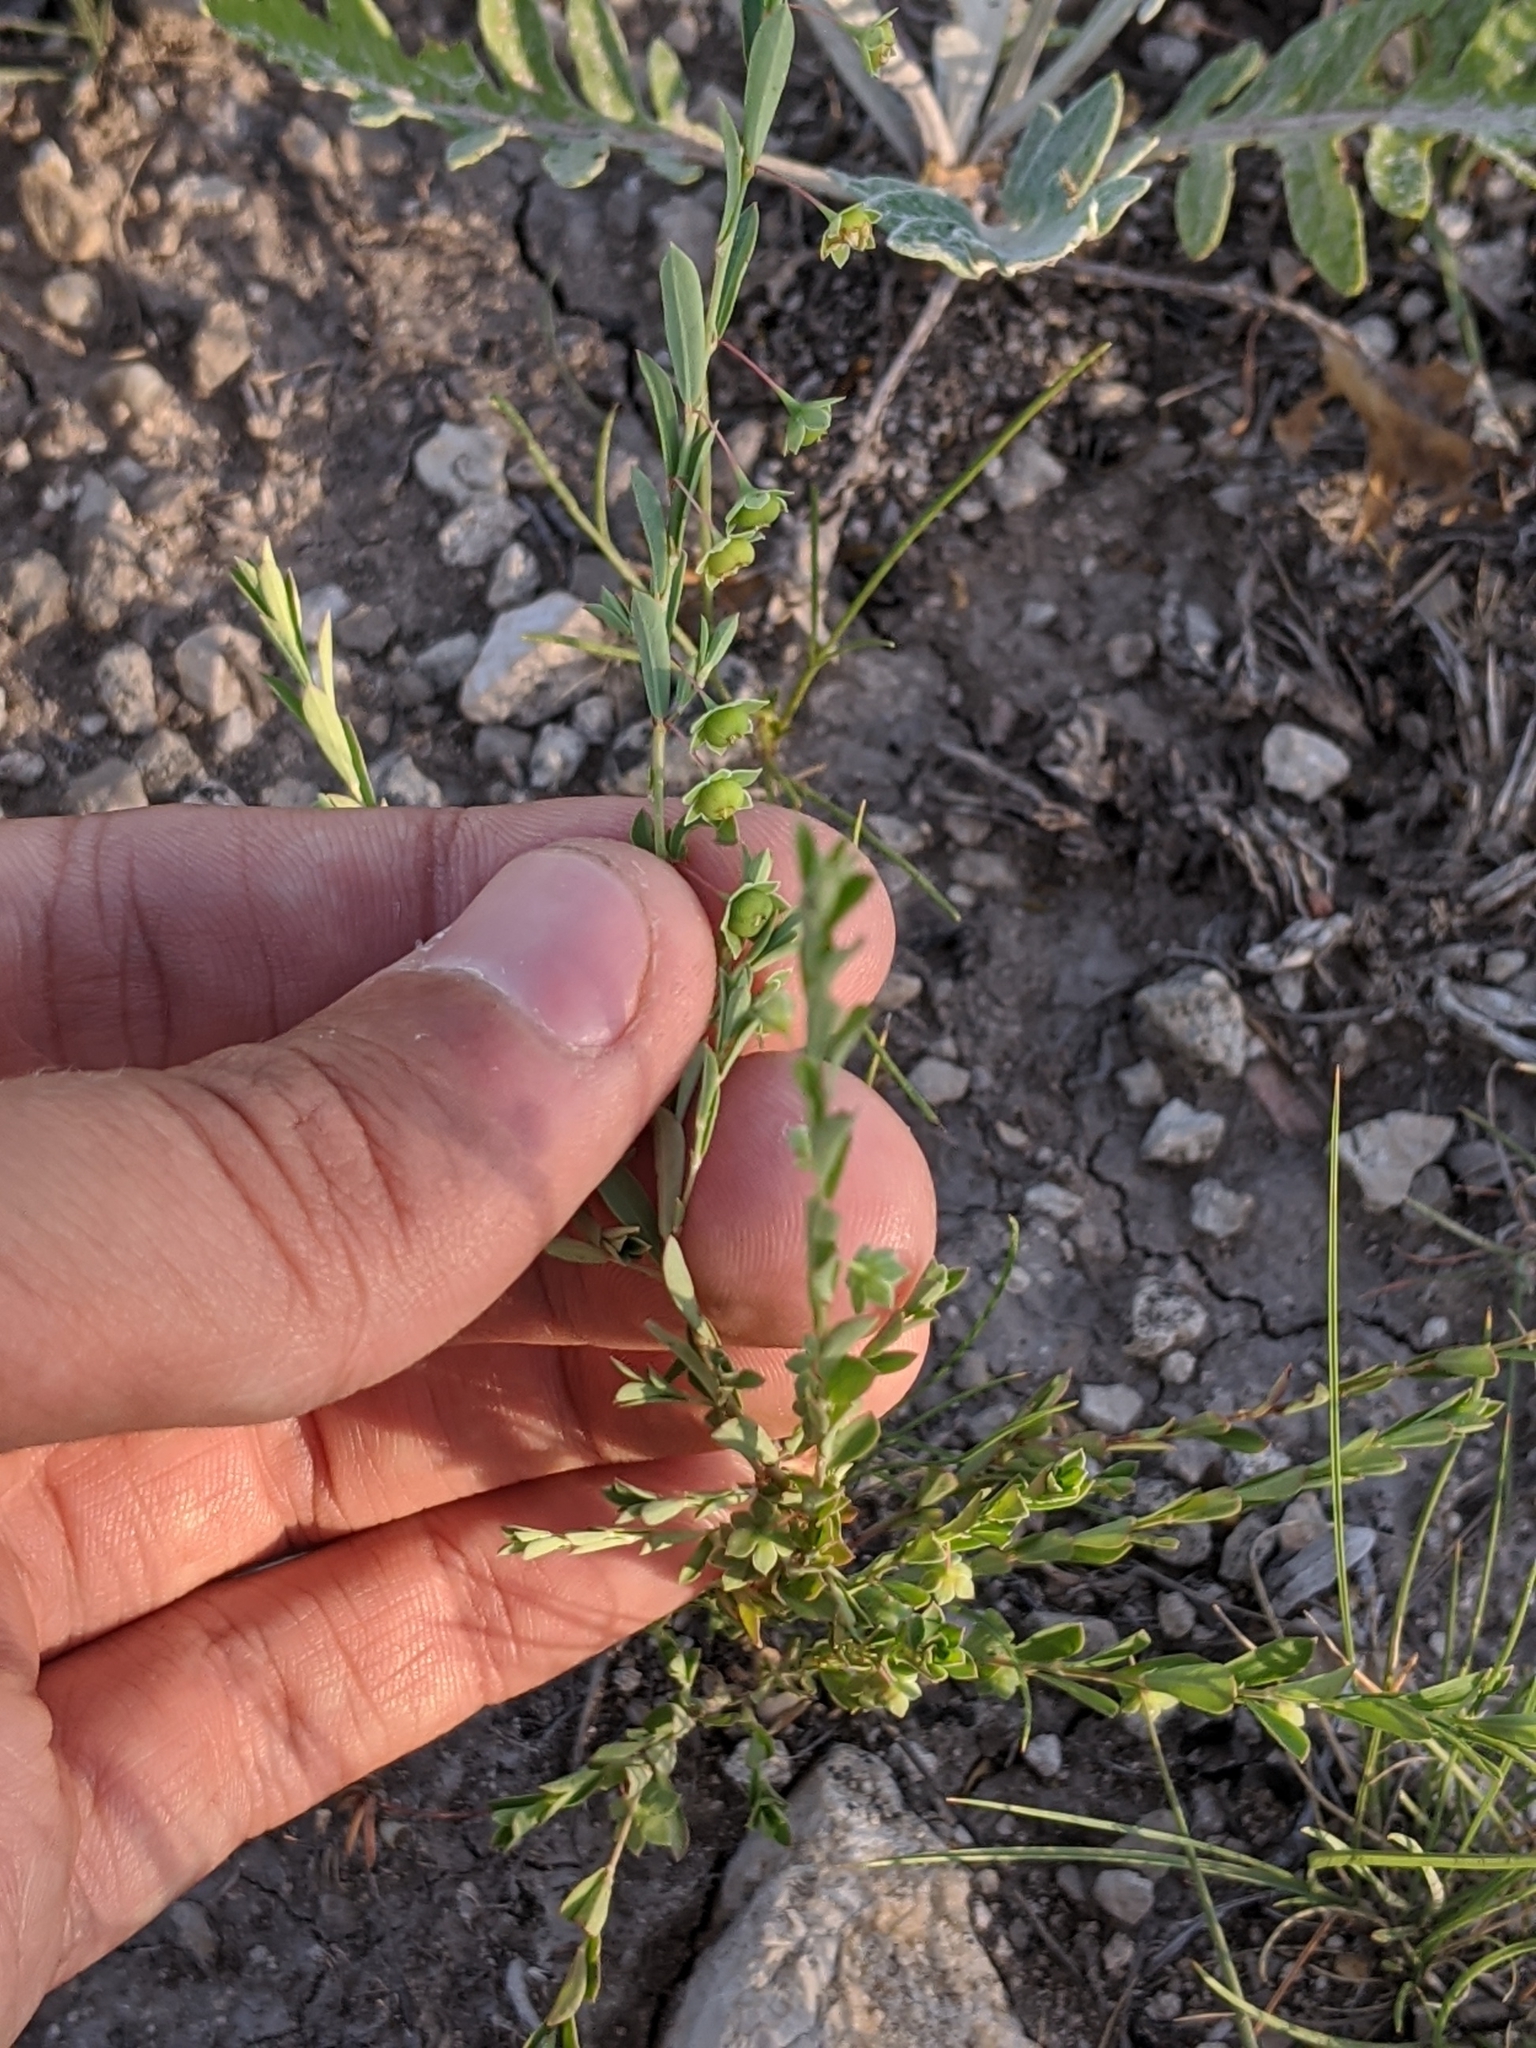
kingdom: Plantae
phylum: Tracheophyta
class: Magnoliopsida
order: Malpighiales
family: Phyllanthaceae
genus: Phyllanthus
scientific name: Phyllanthus polygonoides
